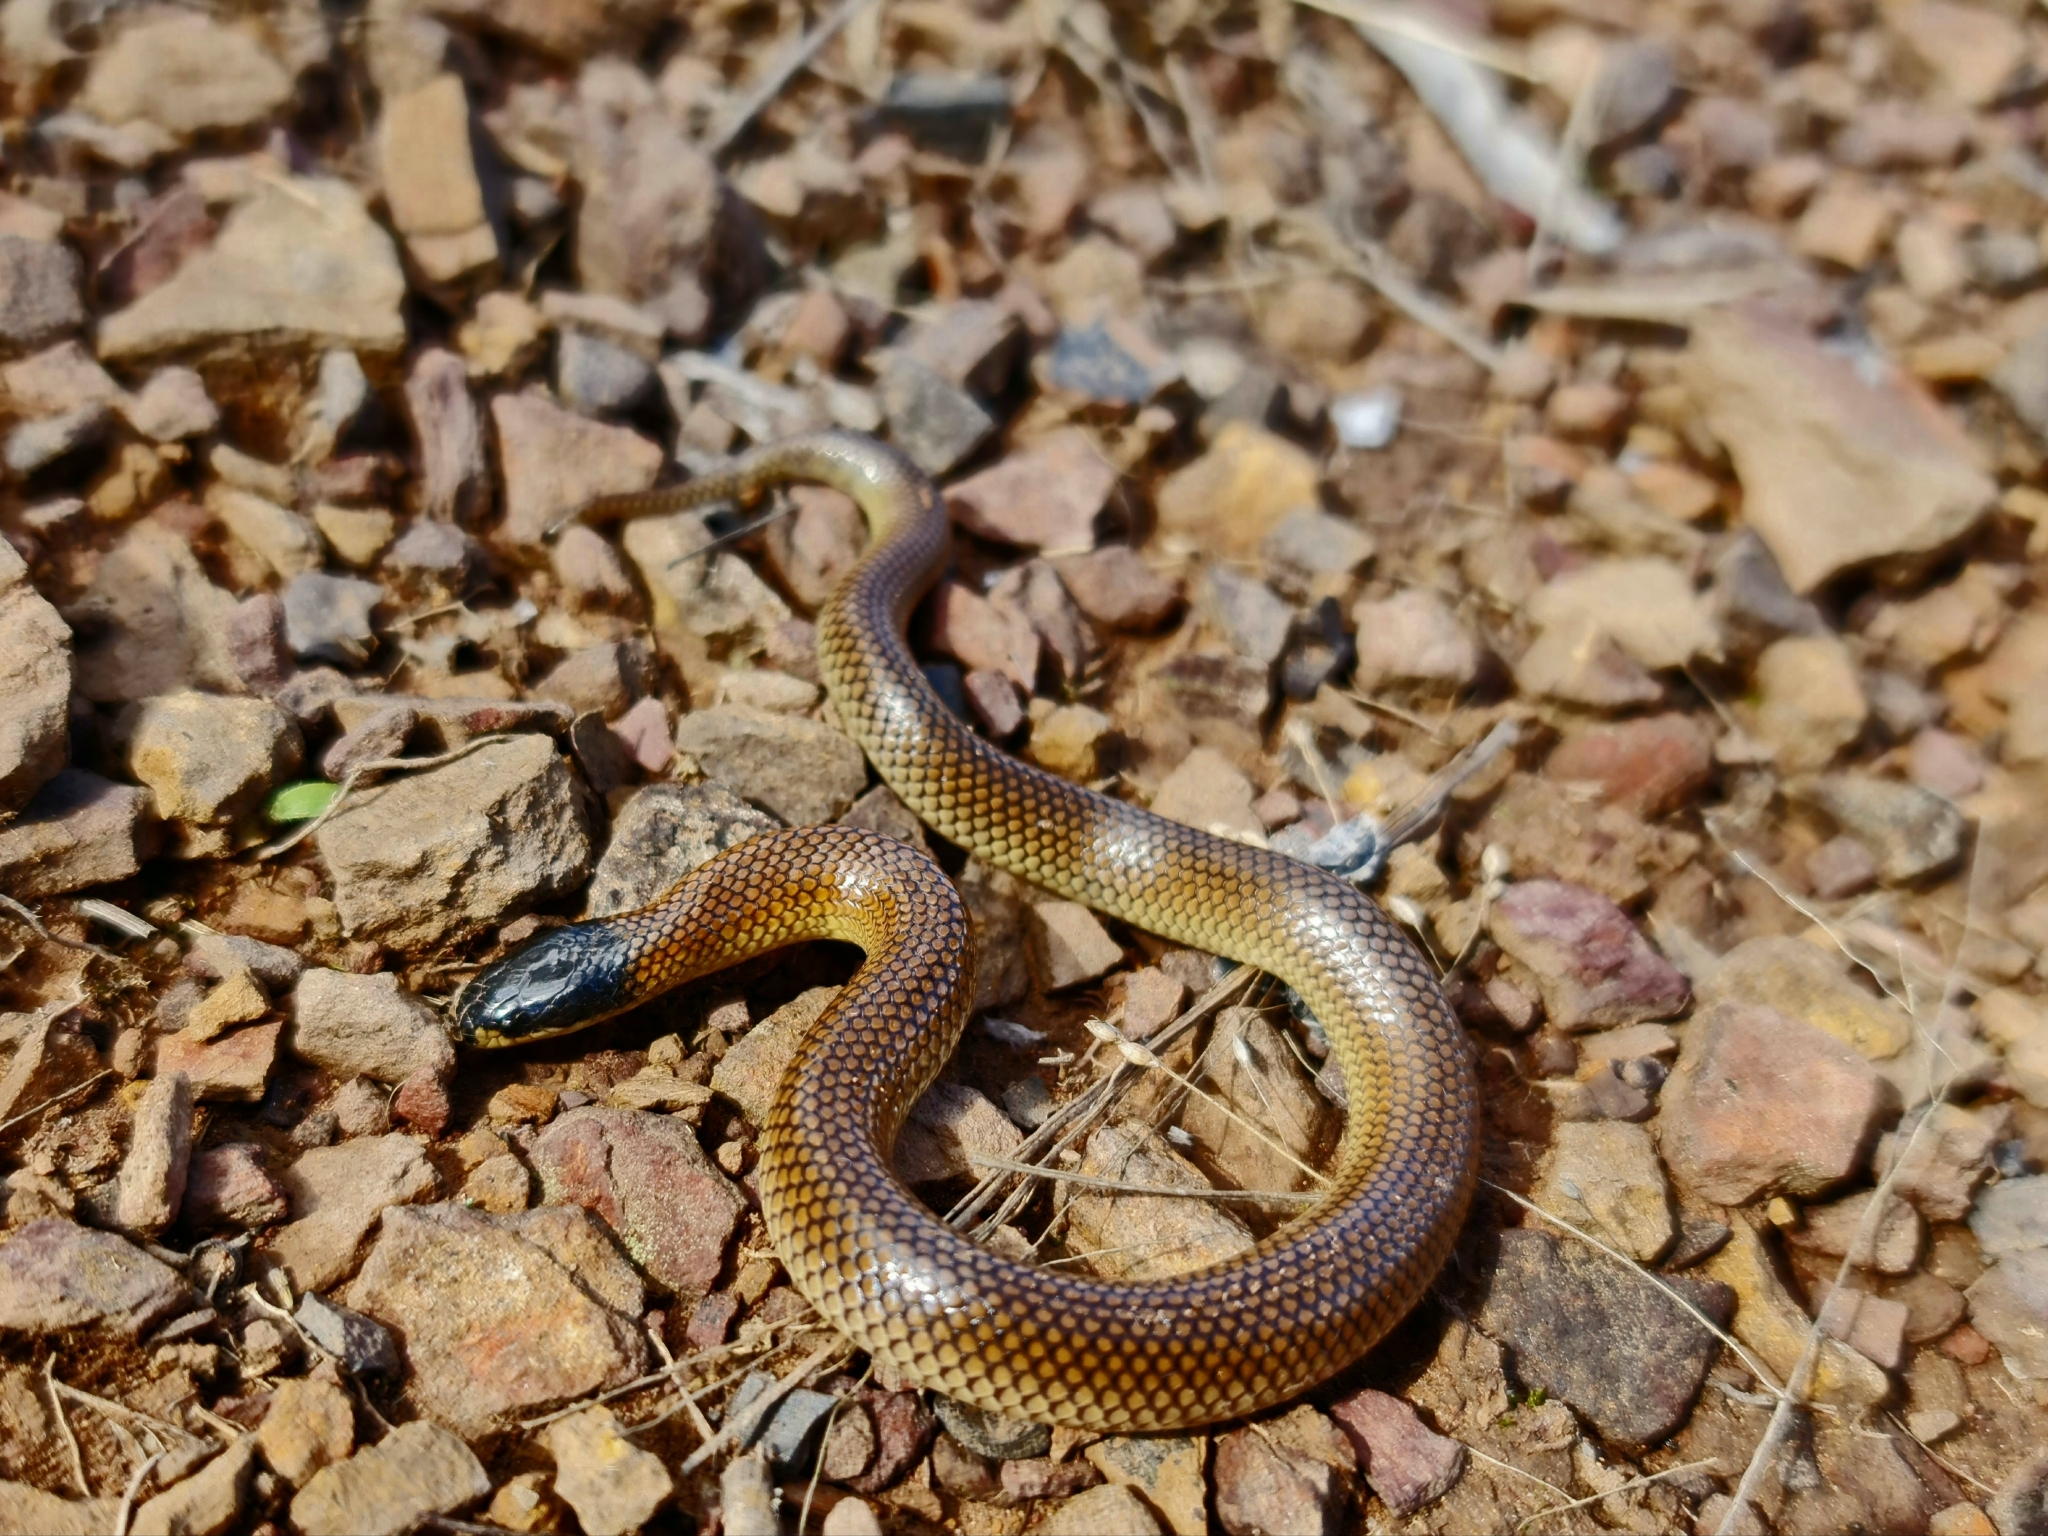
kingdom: Animalia
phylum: Chordata
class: Squamata
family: Elapidae
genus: Suta
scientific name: Suta dwyeri
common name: Variable black-naped snake
